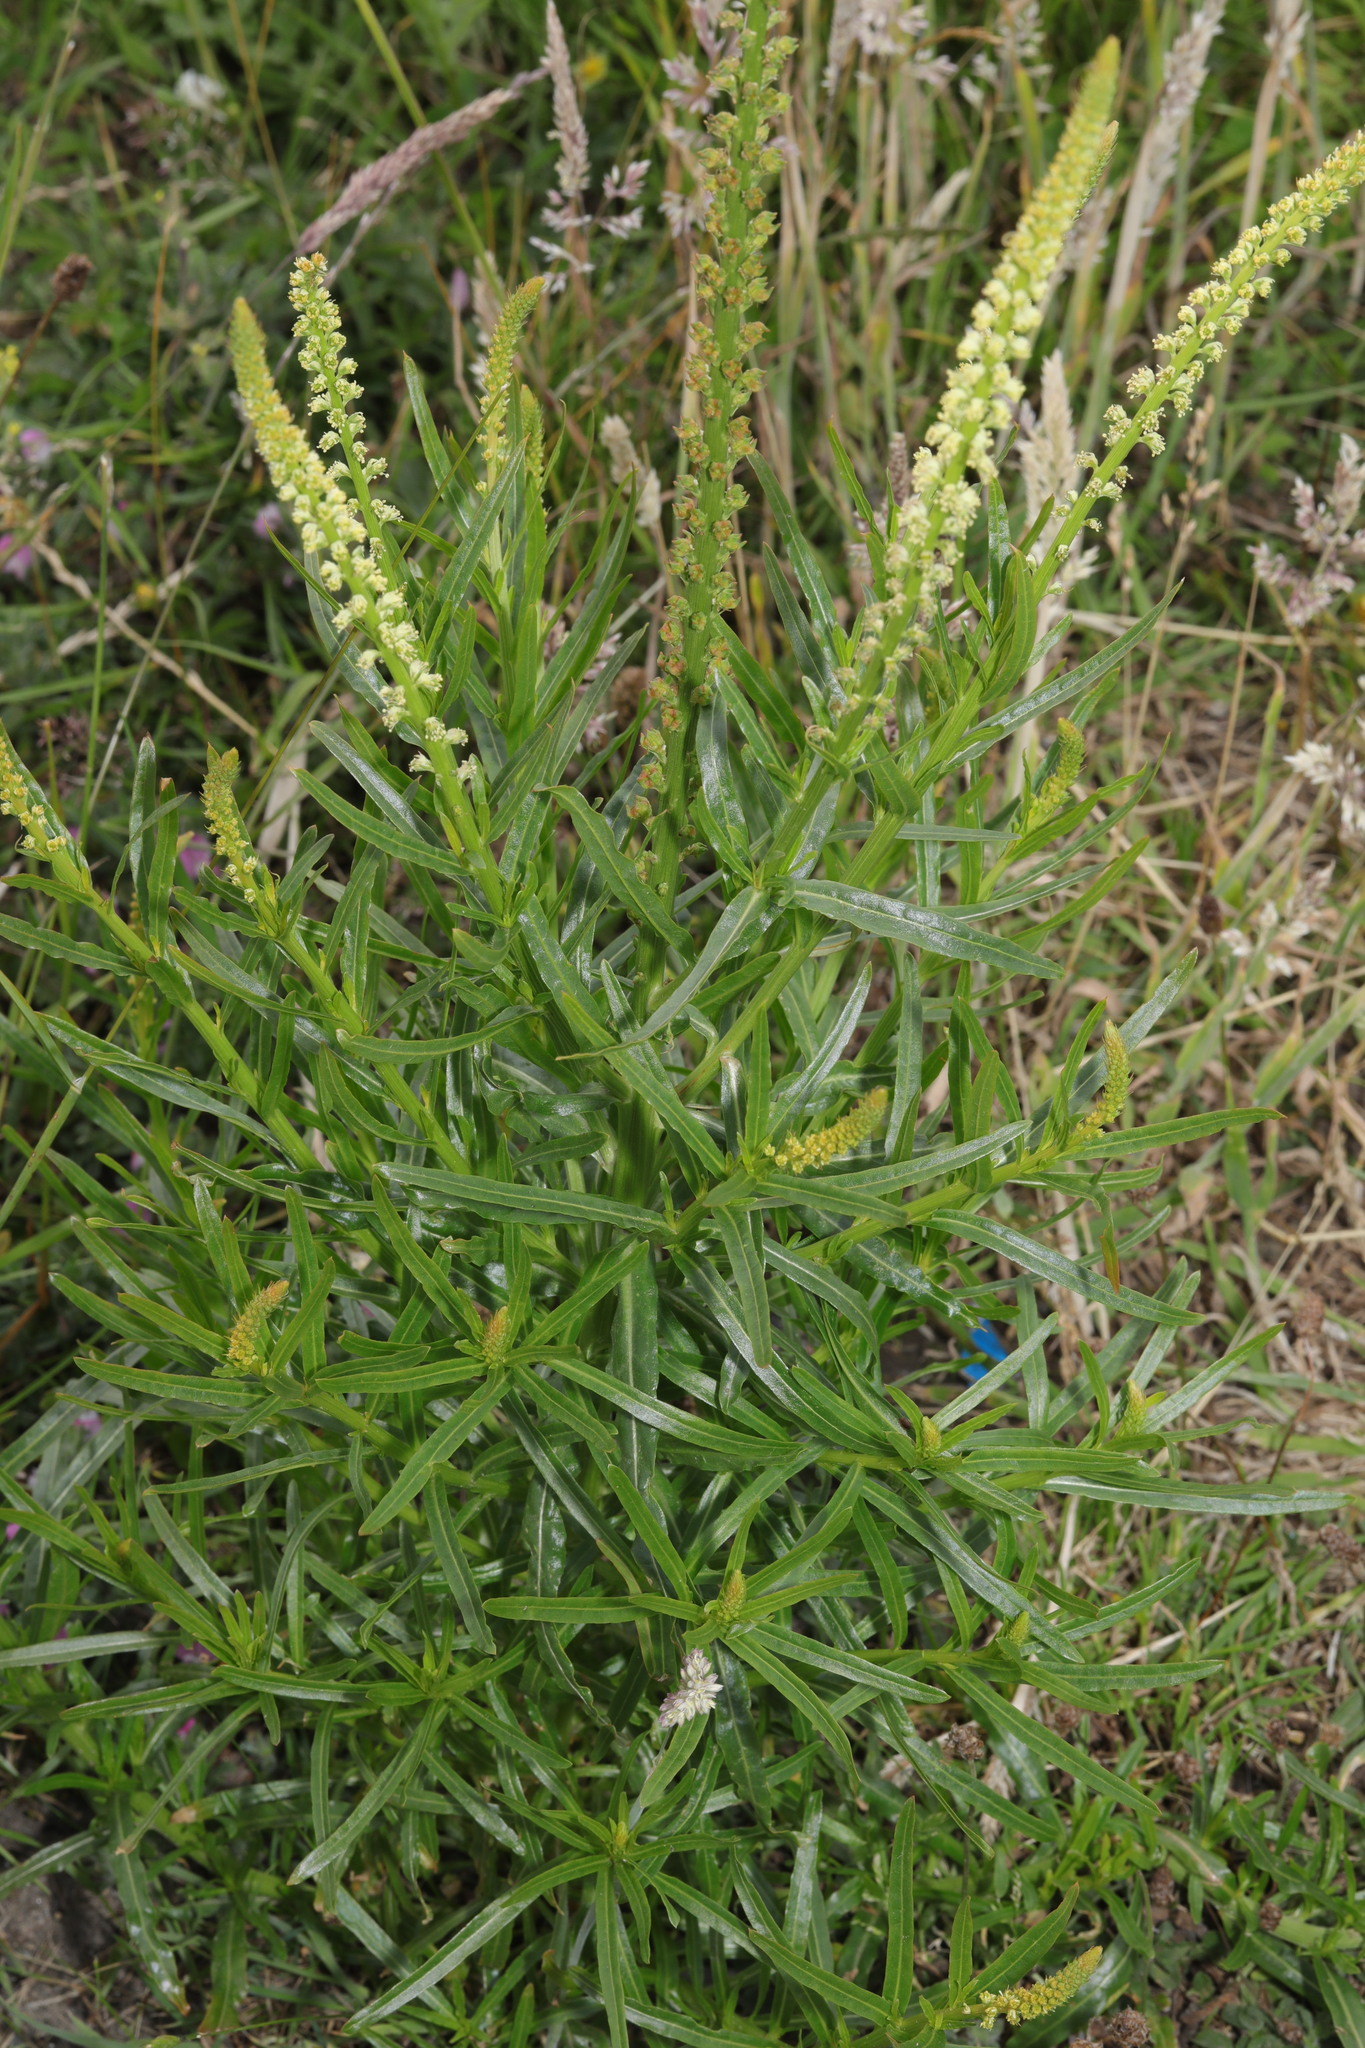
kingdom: Plantae
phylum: Tracheophyta
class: Magnoliopsida
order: Brassicales
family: Resedaceae
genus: Reseda
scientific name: Reseda luteola
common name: Weld
